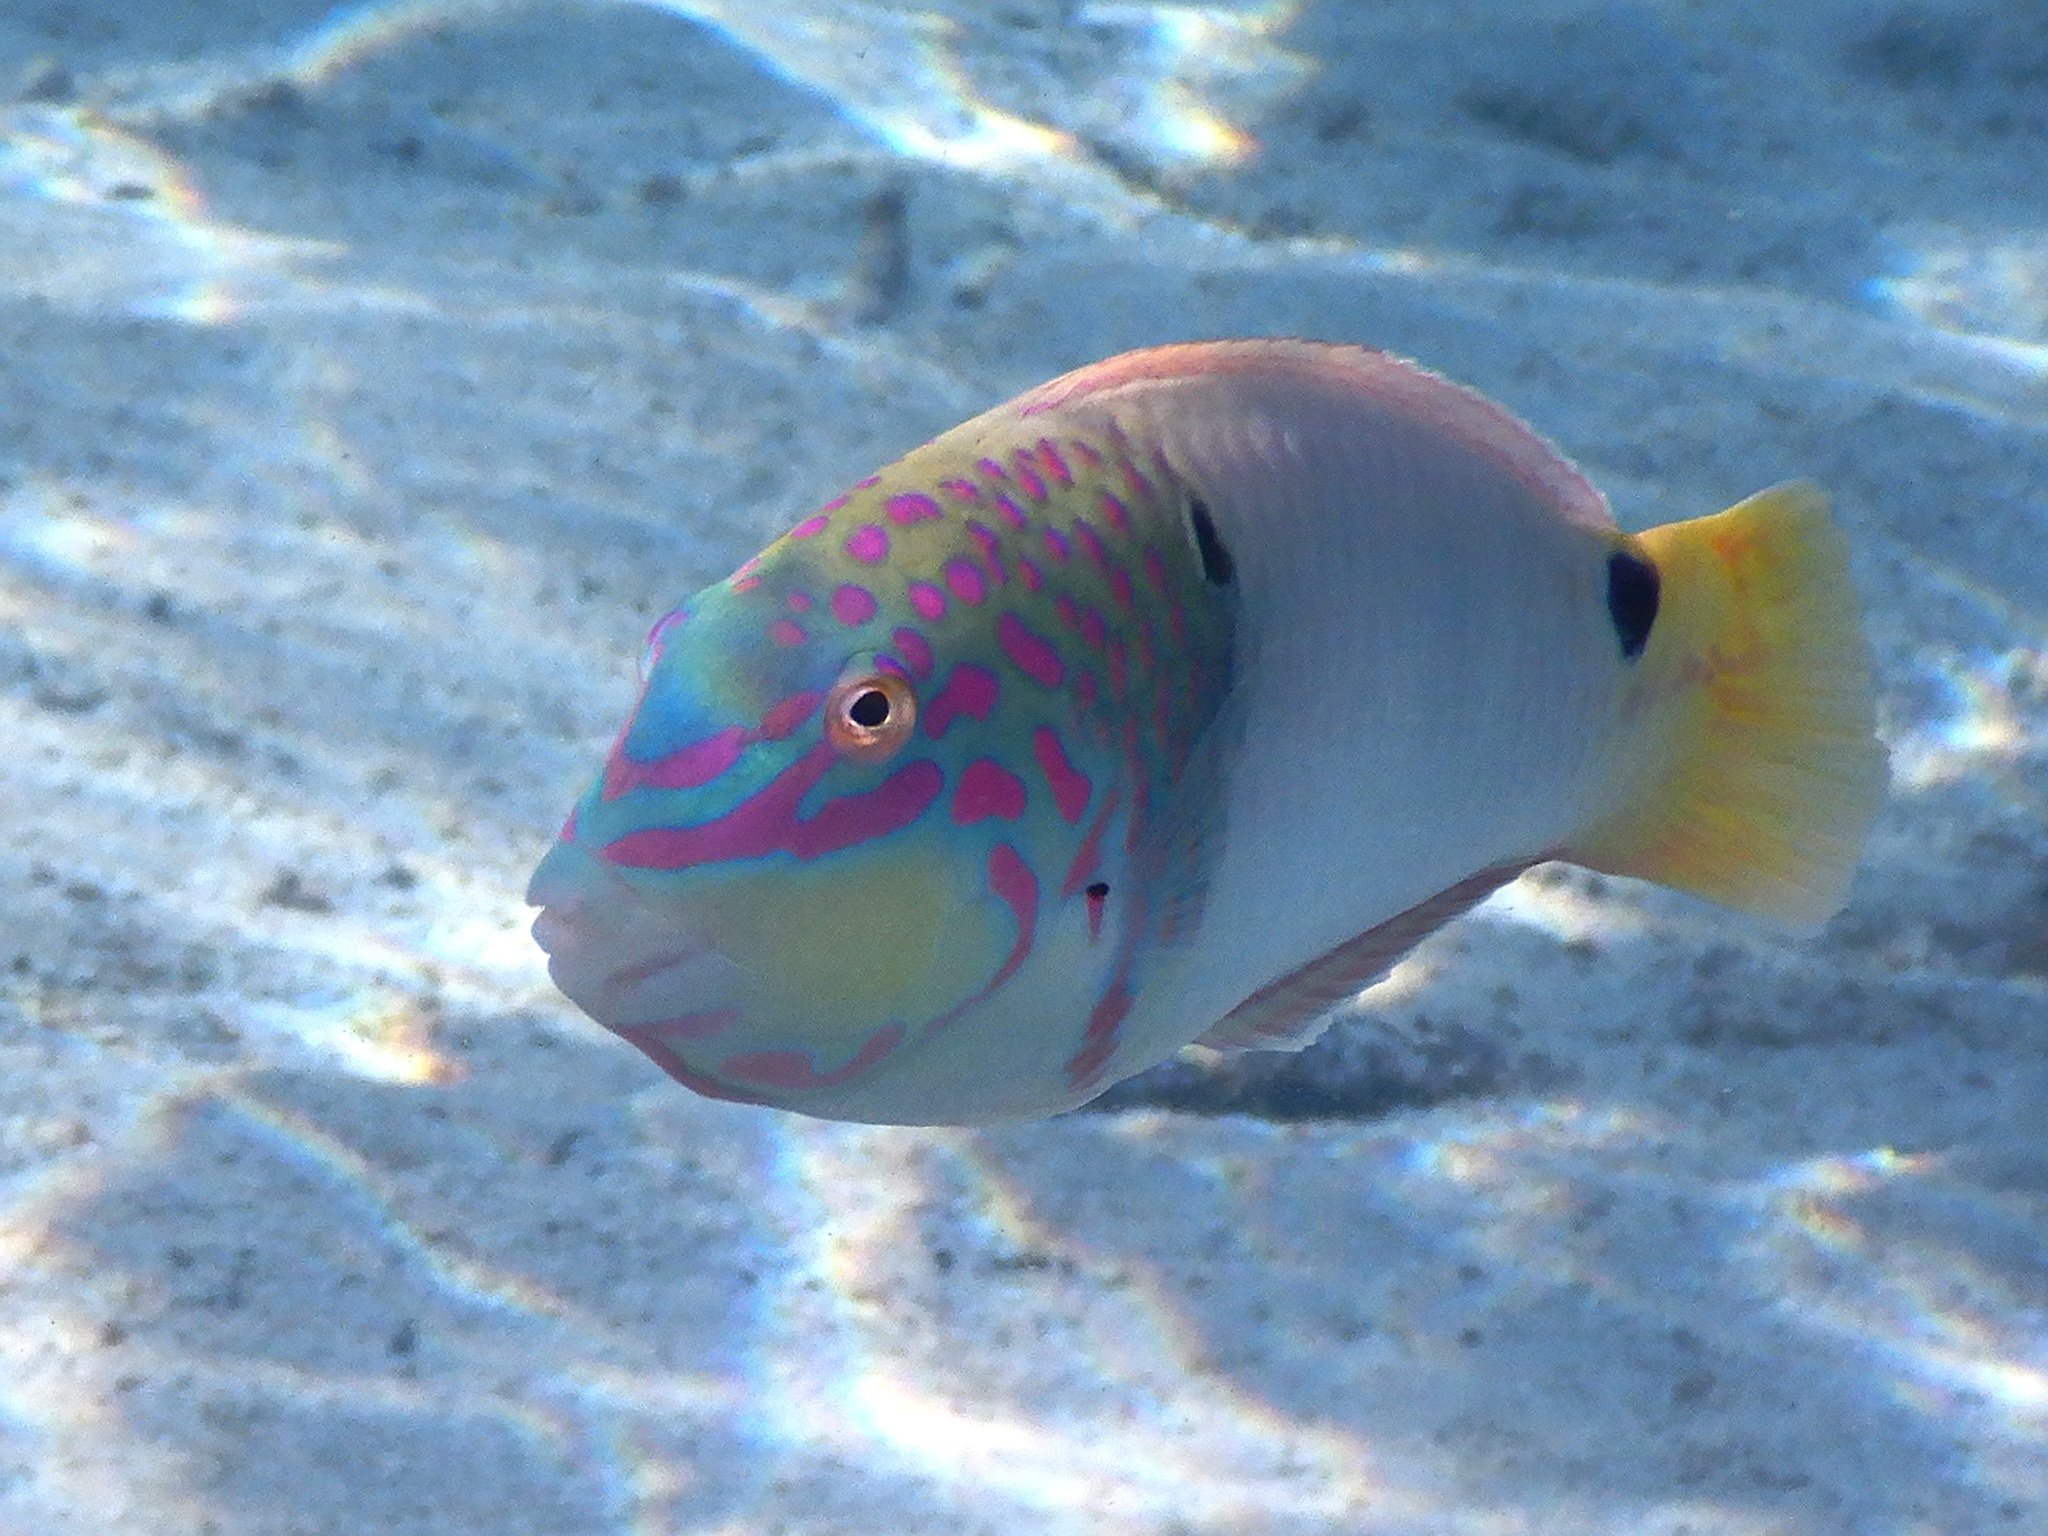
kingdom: Animalia
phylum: Chordata
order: Perciformes
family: Labridae
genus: Halichoeres
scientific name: Halichoeres trimaculatus
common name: Three-spot wrasse
